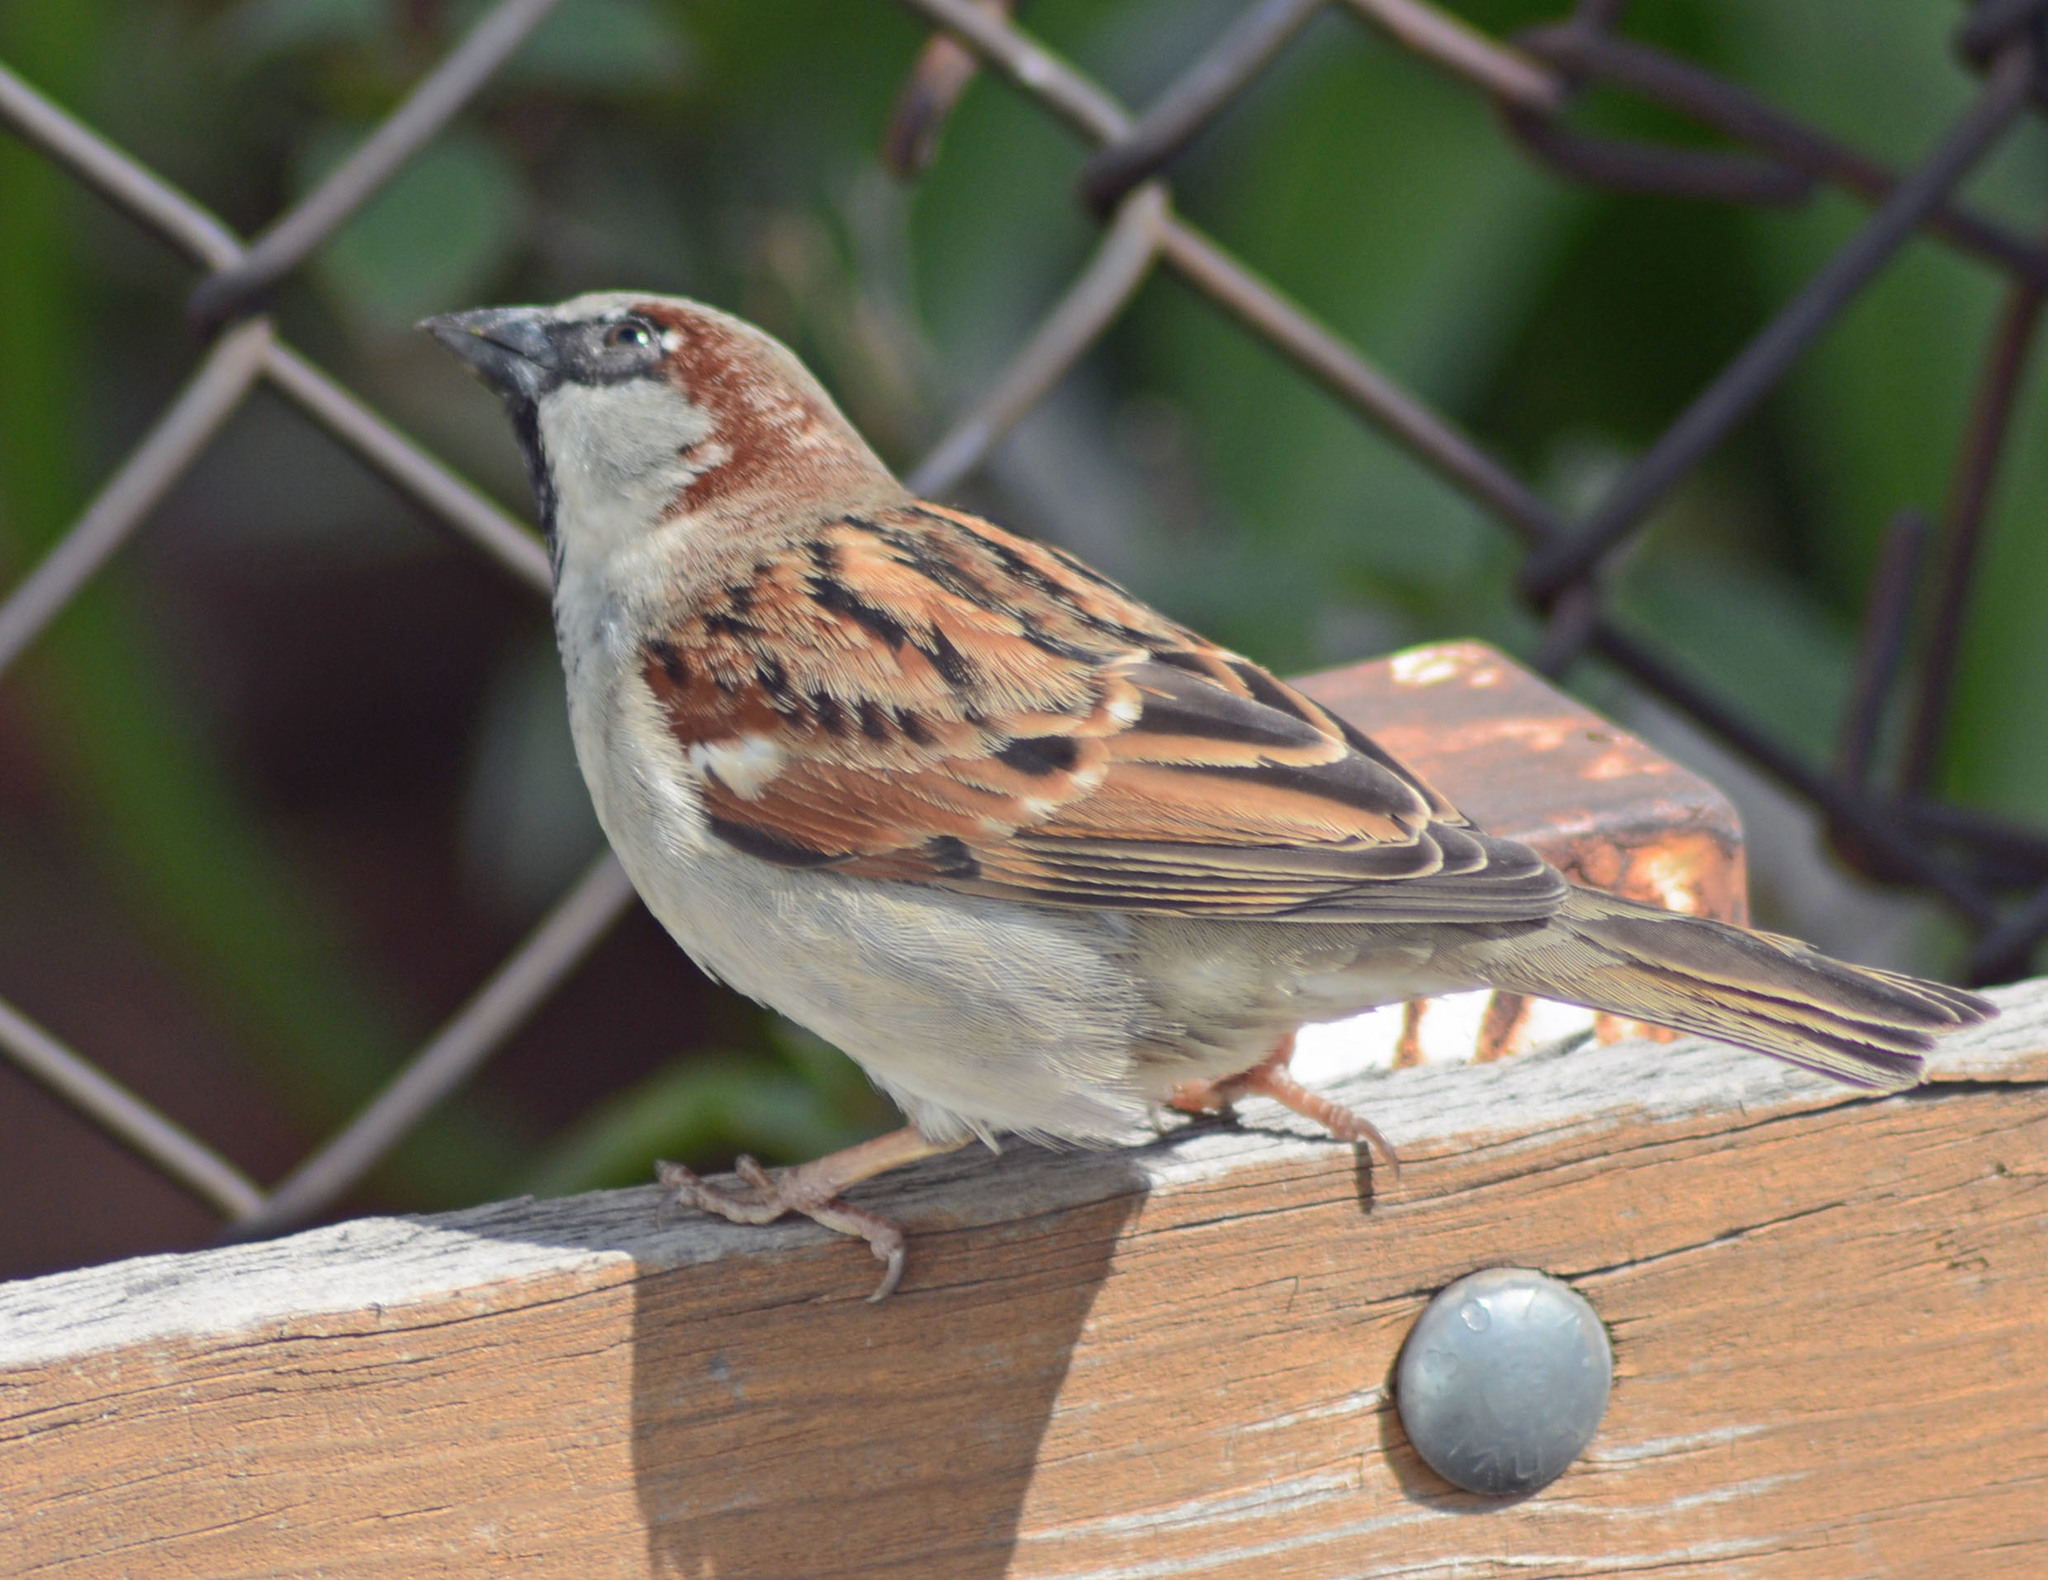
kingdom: Animalia
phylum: Chordata
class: Aves
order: Passeriformes
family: Passeridae
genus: Passer
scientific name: Passer domesticus
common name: House sparrow
